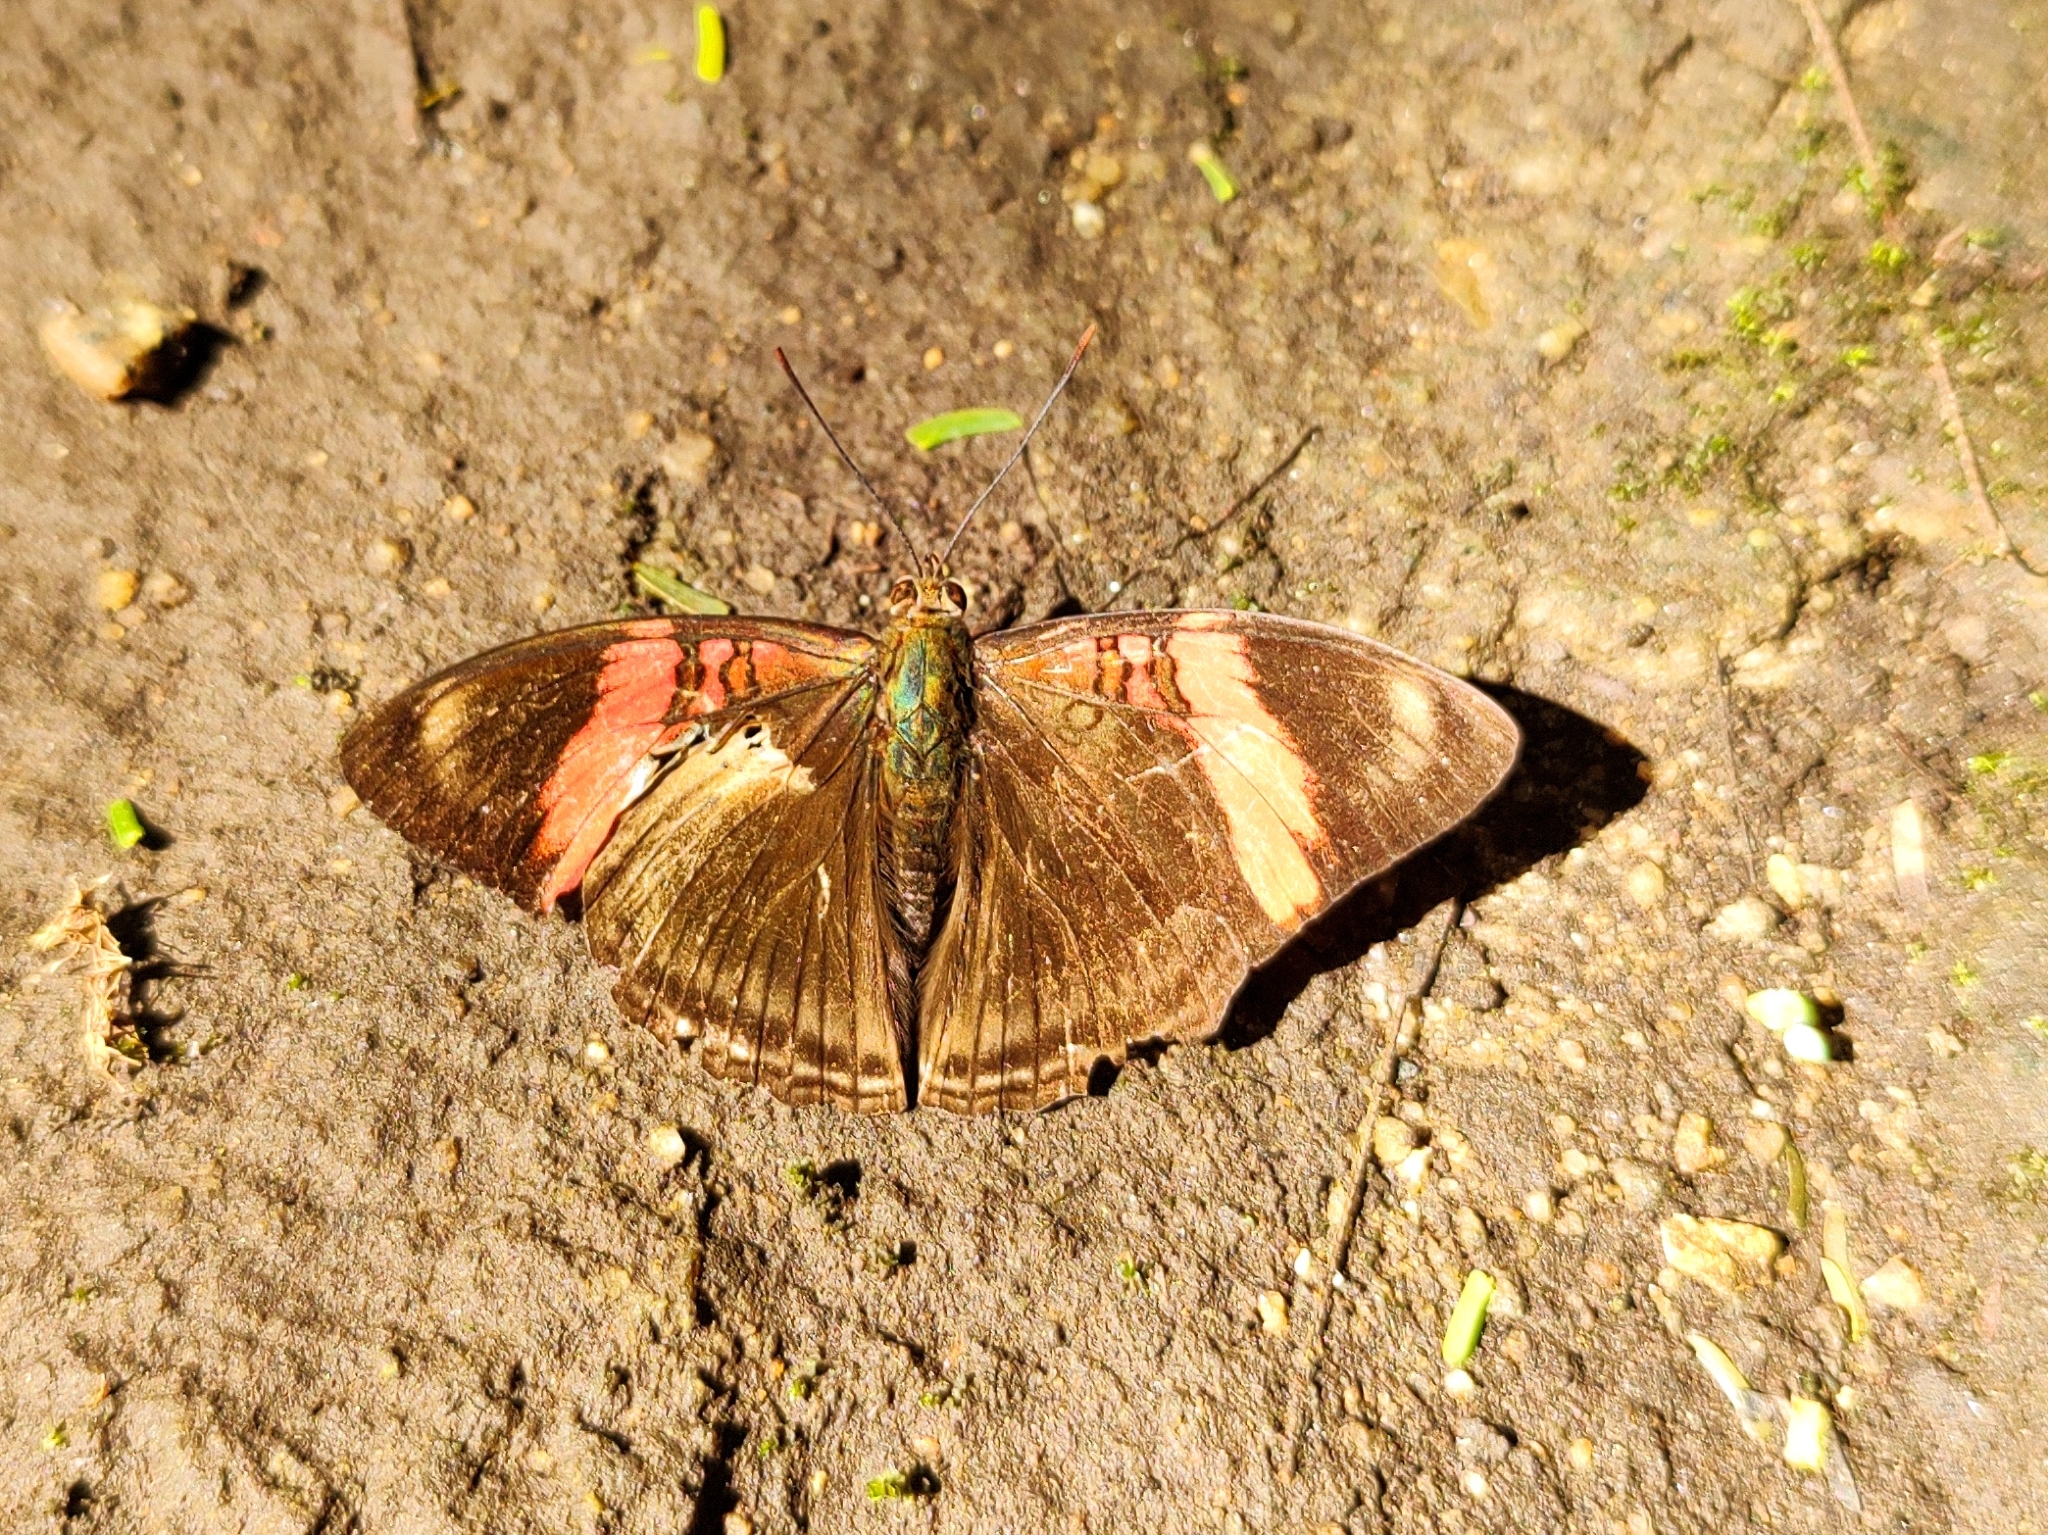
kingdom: Animalia
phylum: Arthropoda
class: Insecta
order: Lepidoptera
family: Nymphalidae
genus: Limenitis
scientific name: Limenitis isis
